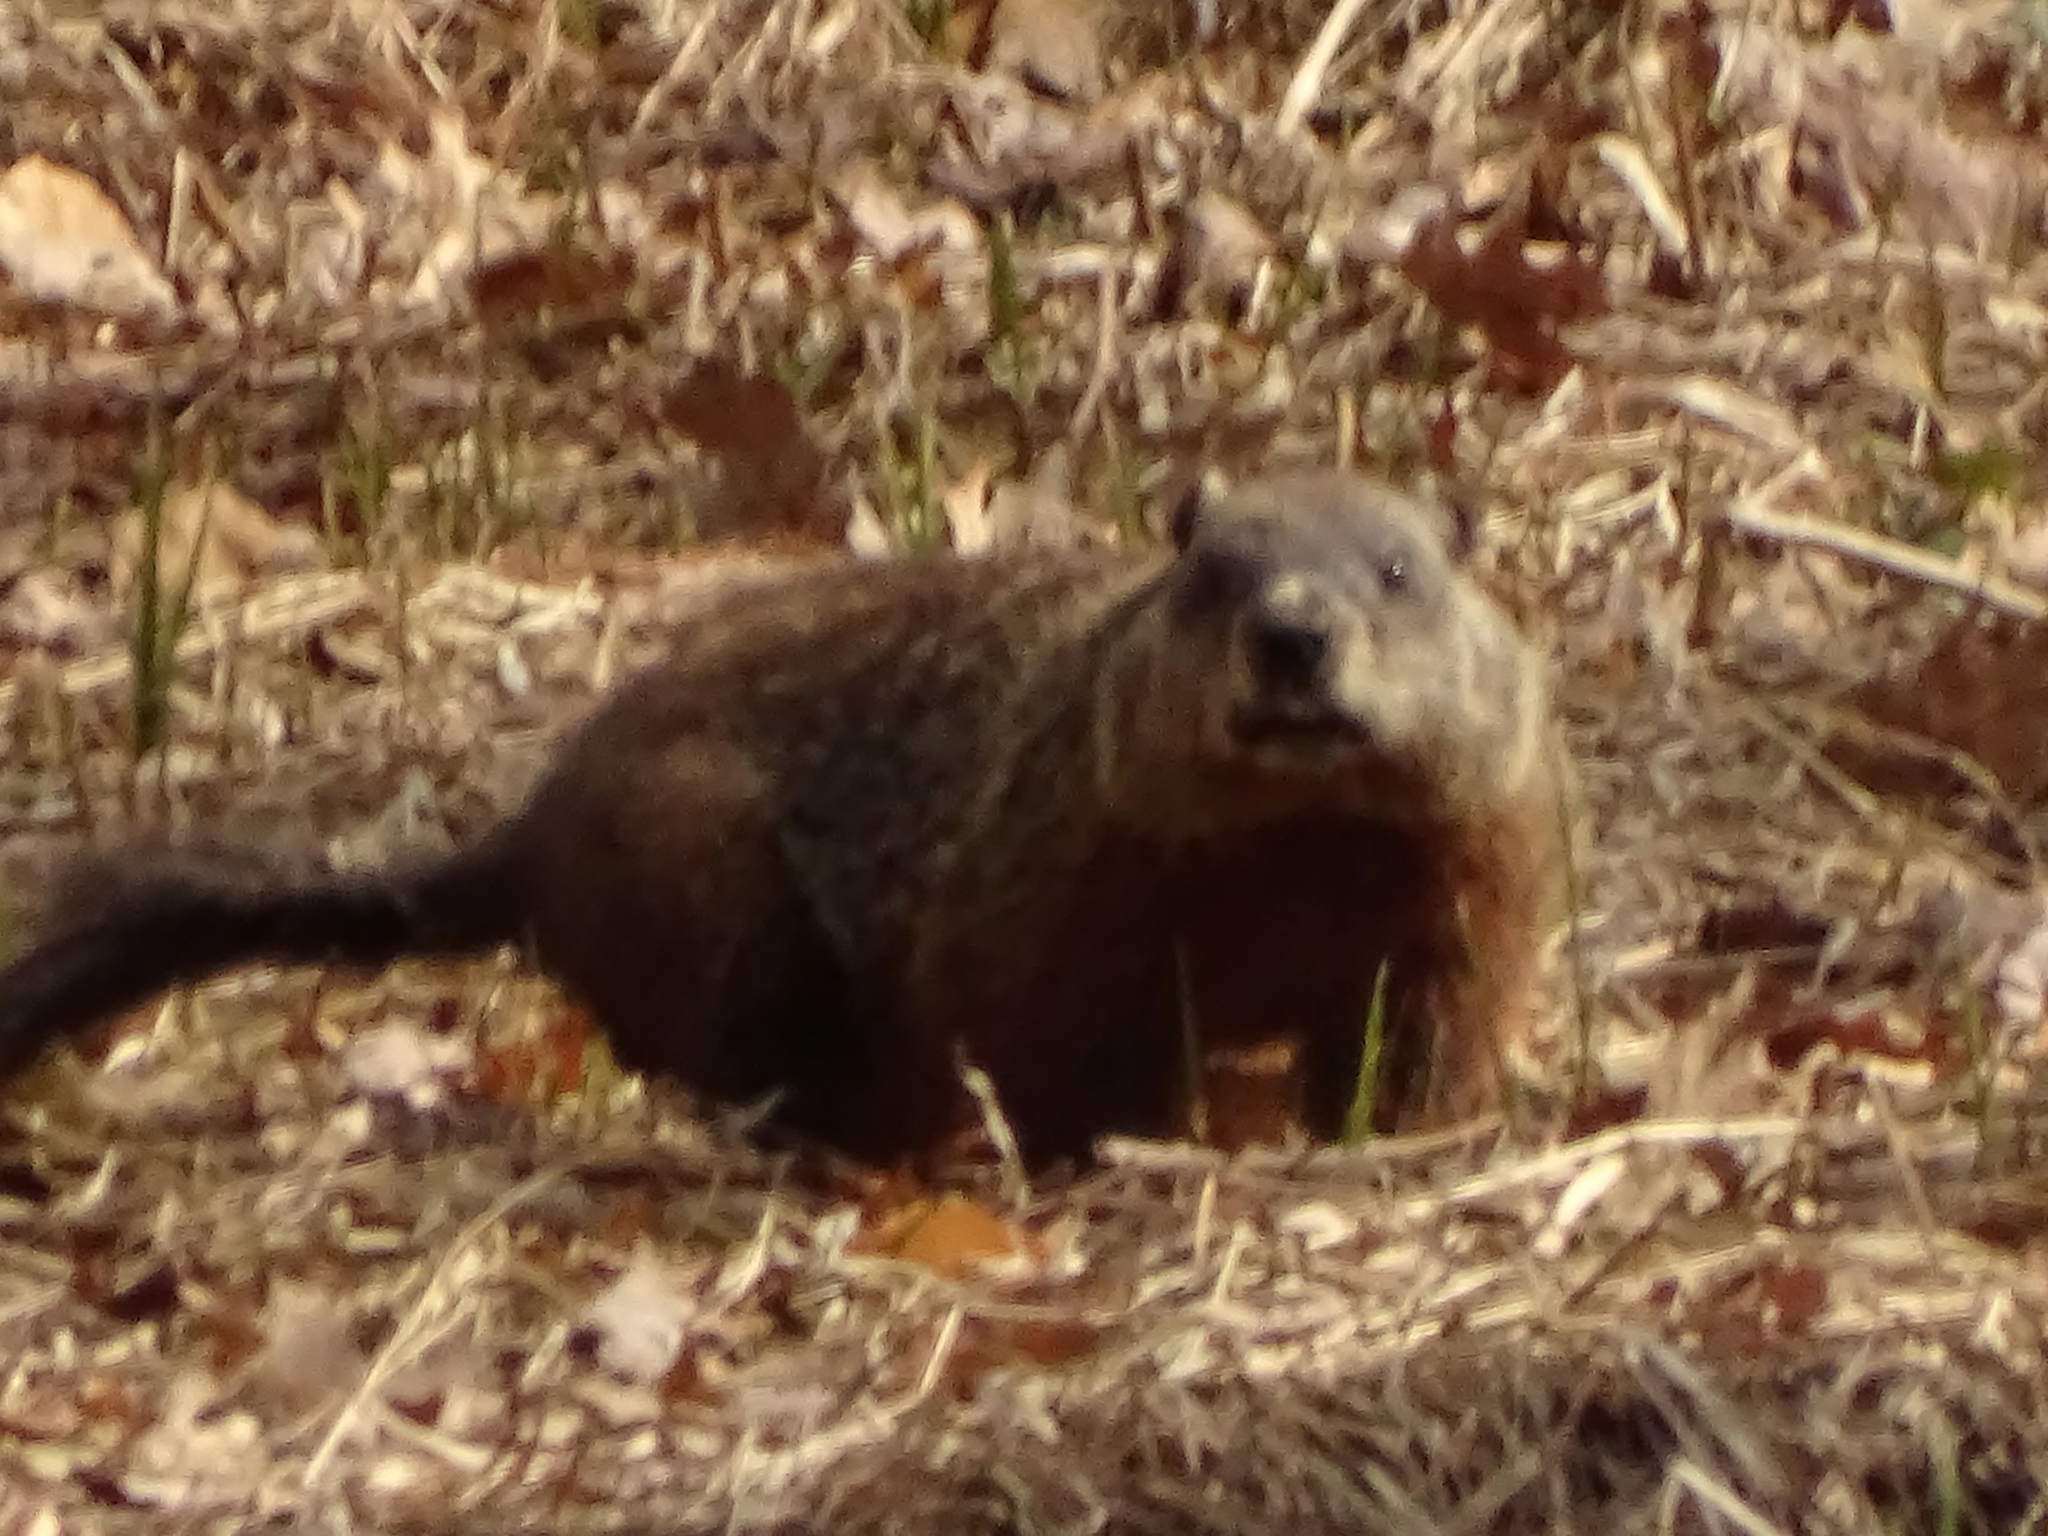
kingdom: Animalia
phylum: Chordata
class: Mammalia
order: Rodentia
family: Sciuridae
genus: Marmota
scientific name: Marmota monax
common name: Groundhog
